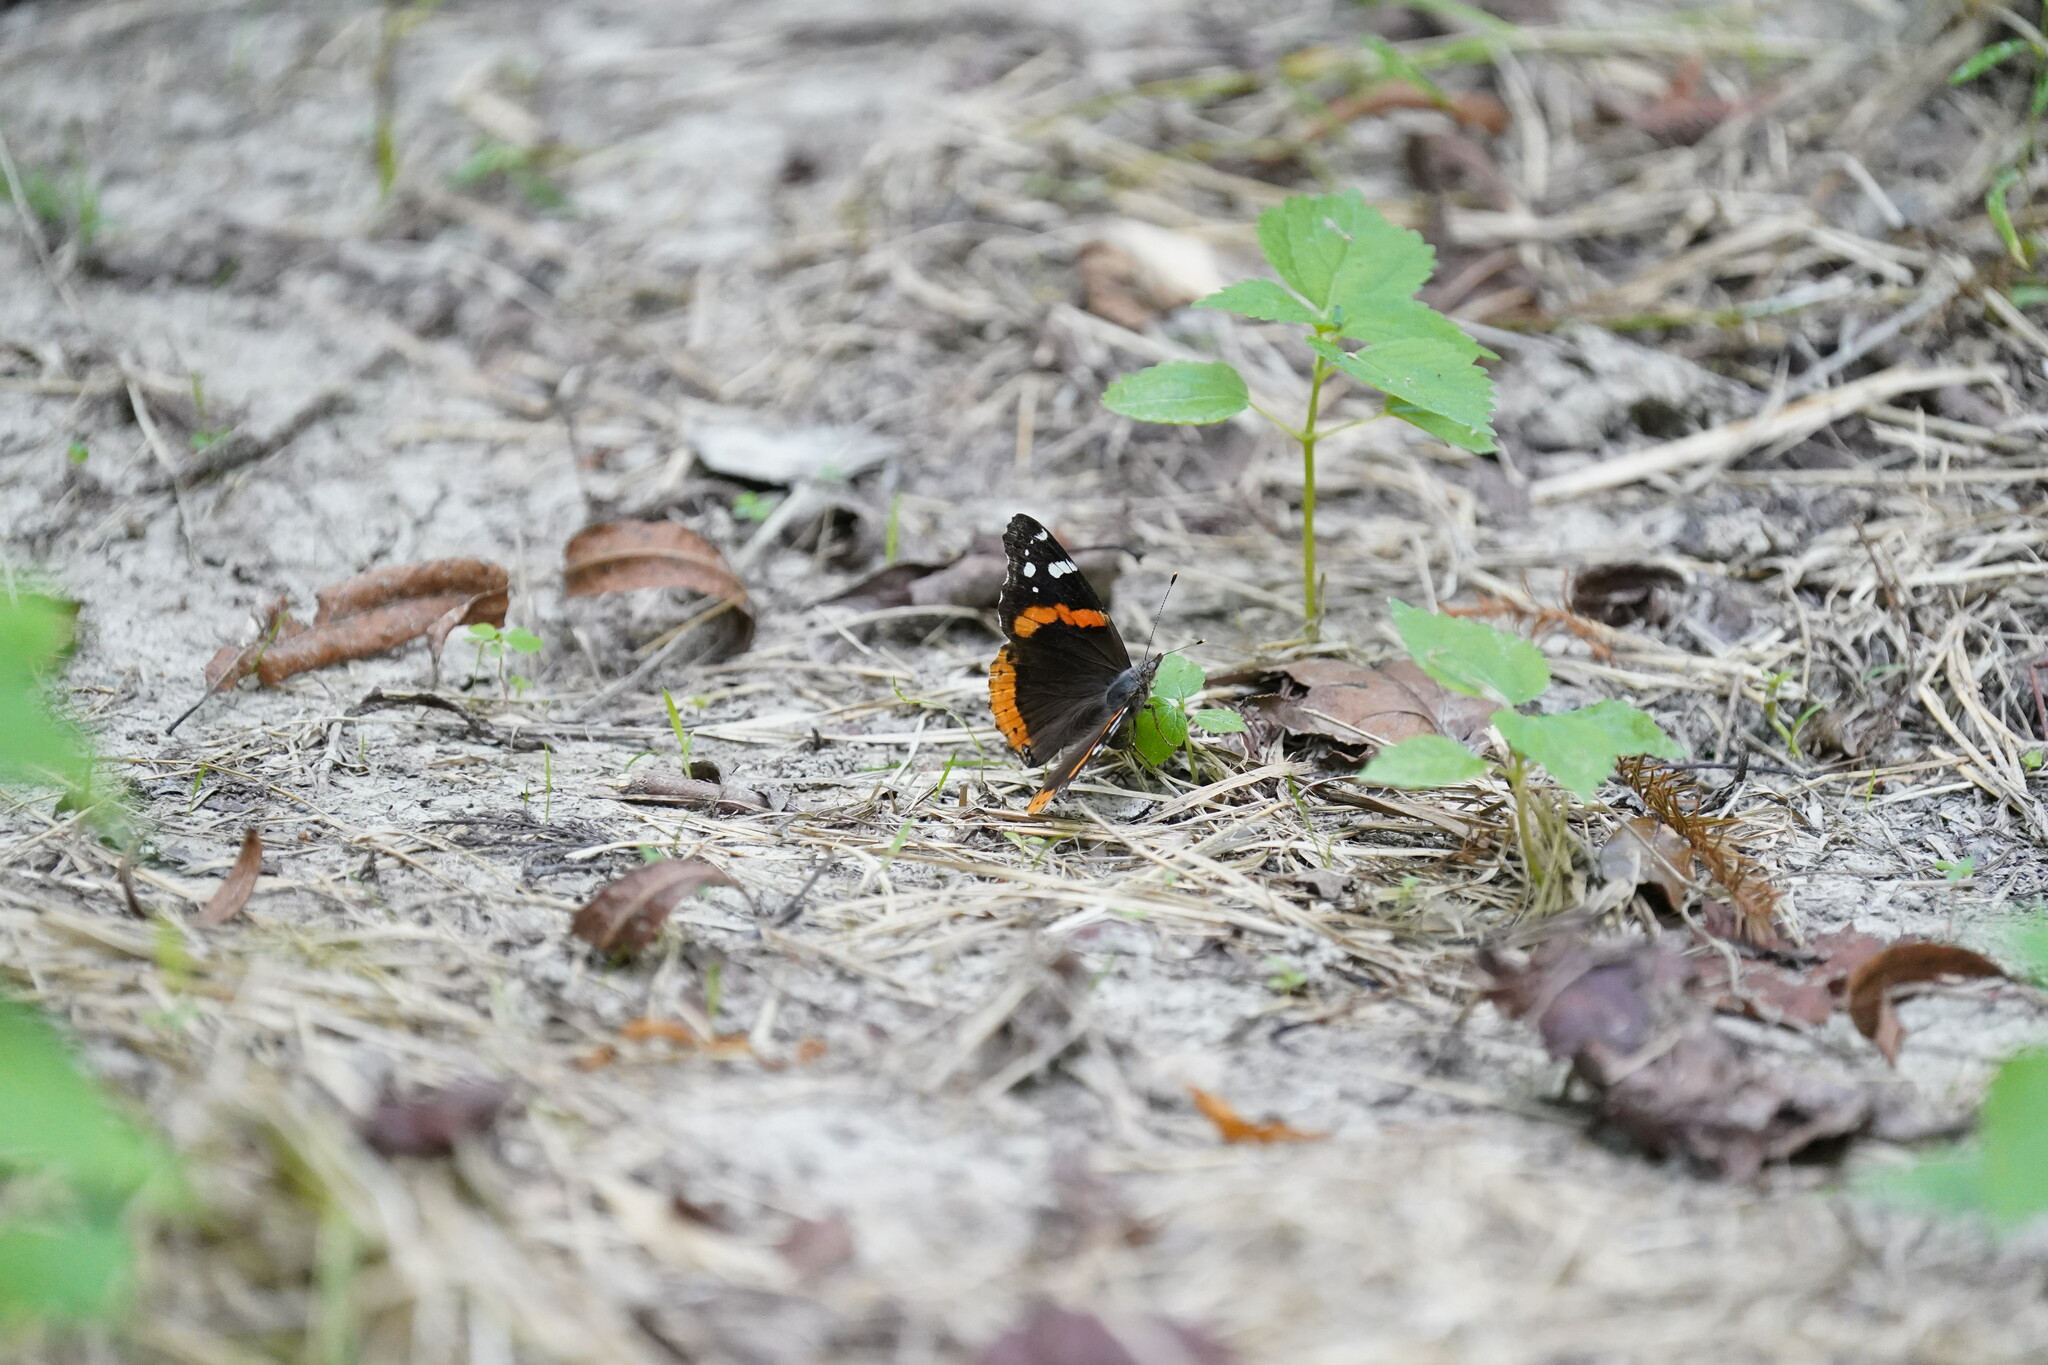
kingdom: Animalia
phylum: Arthropoda
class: Insecta
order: Lepidoptera
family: Nymphalidae
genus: Vanessa
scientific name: Vanessa atalanta
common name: Red admiral
